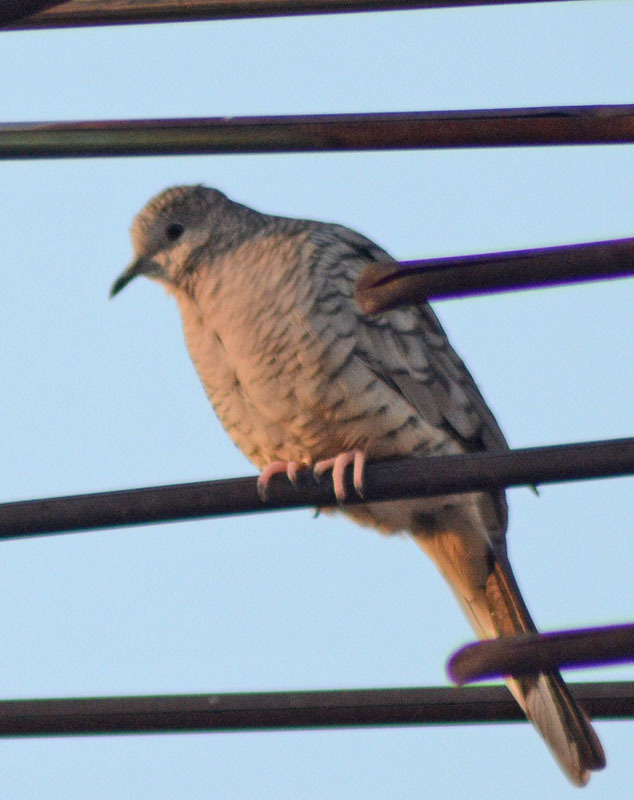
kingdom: Animalia
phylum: Chordata
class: Aves
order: Columbiformes
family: Columbidae
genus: Columbina
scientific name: Columbina inca
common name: Inca dove
